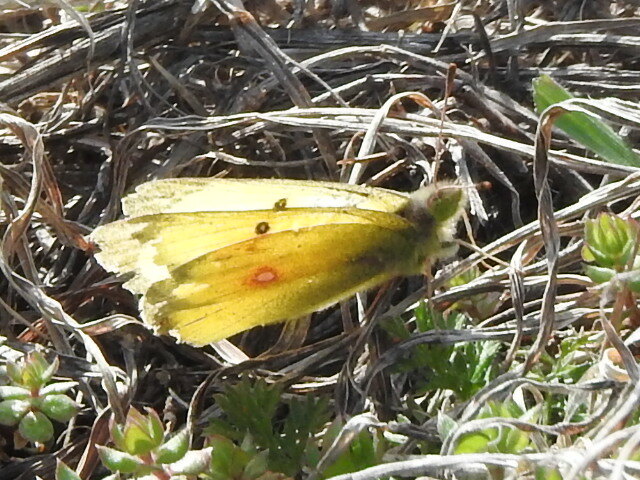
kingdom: Animalia
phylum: Arthropoda
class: Insecta
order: Lepidoptera
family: Pieridae
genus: Colias
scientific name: Colias eurytheme
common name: Alfalfa butterfly
